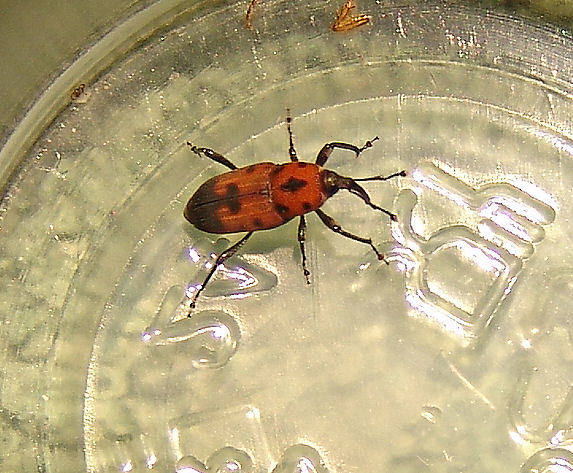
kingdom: Animalia
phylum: Arthropoda
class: Insecta
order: Coleoptera
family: Dryophthoridae
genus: Rhodobaenus
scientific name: Rhodobaenus quinquepunctatus
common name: Cocklebur weevil
